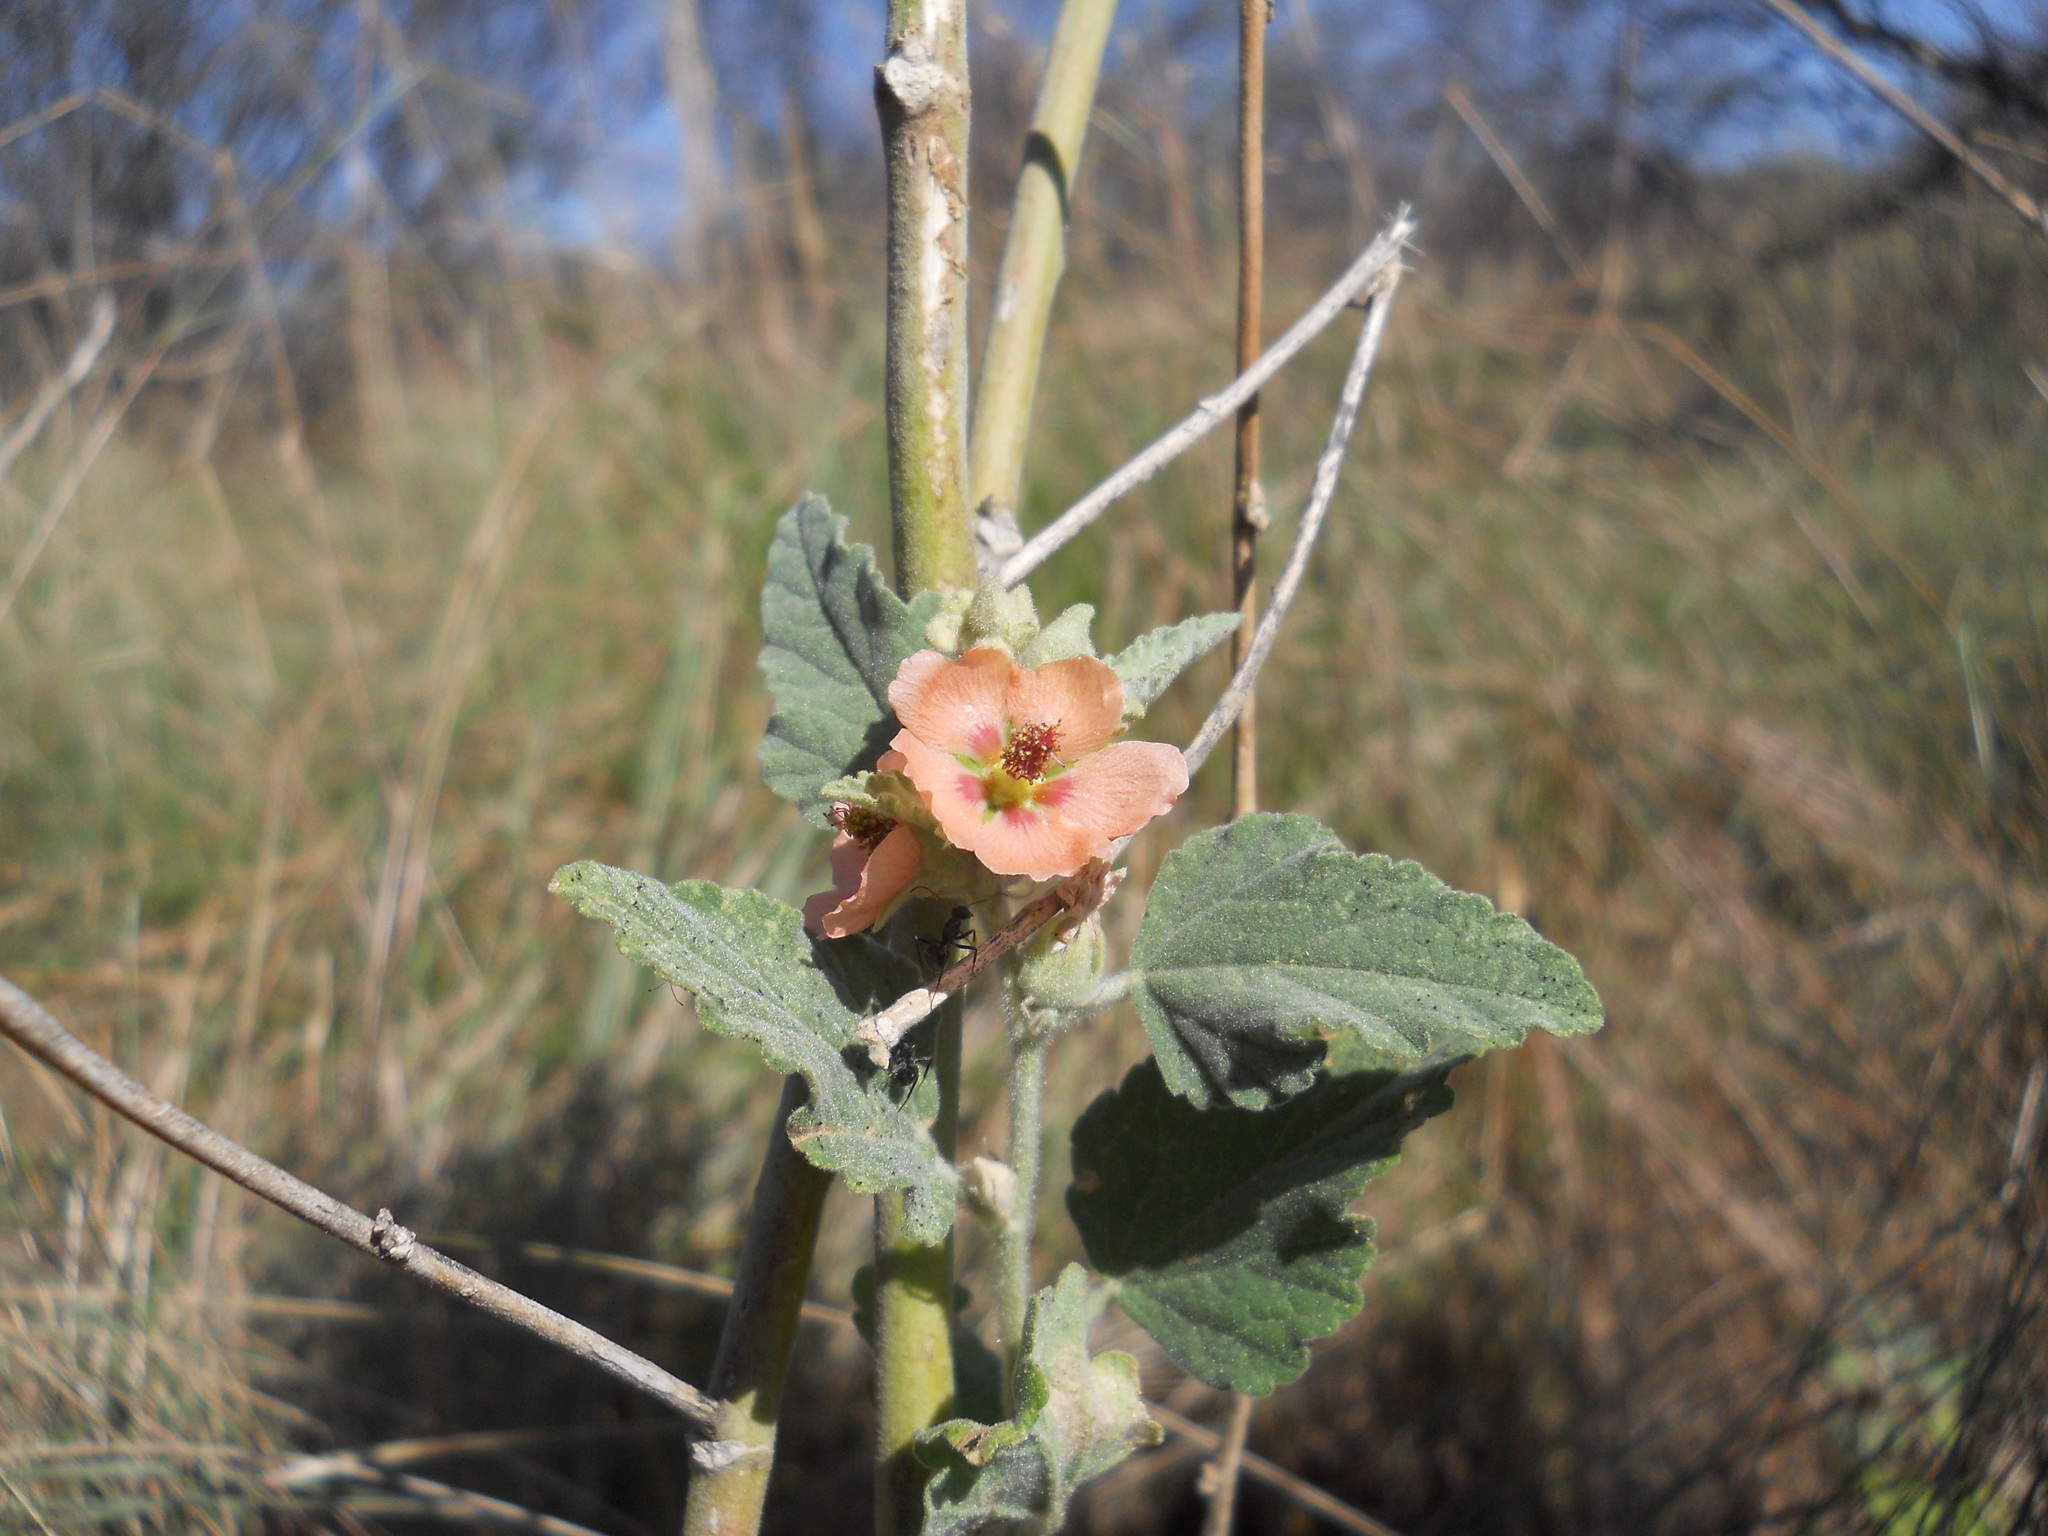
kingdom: Plantae
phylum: Tracheophyta
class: Magnoliopsida
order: Malvales
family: Malvaceae
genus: Sphaeralcea
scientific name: Sphaeralcea bonariensis
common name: Latin globemallow
